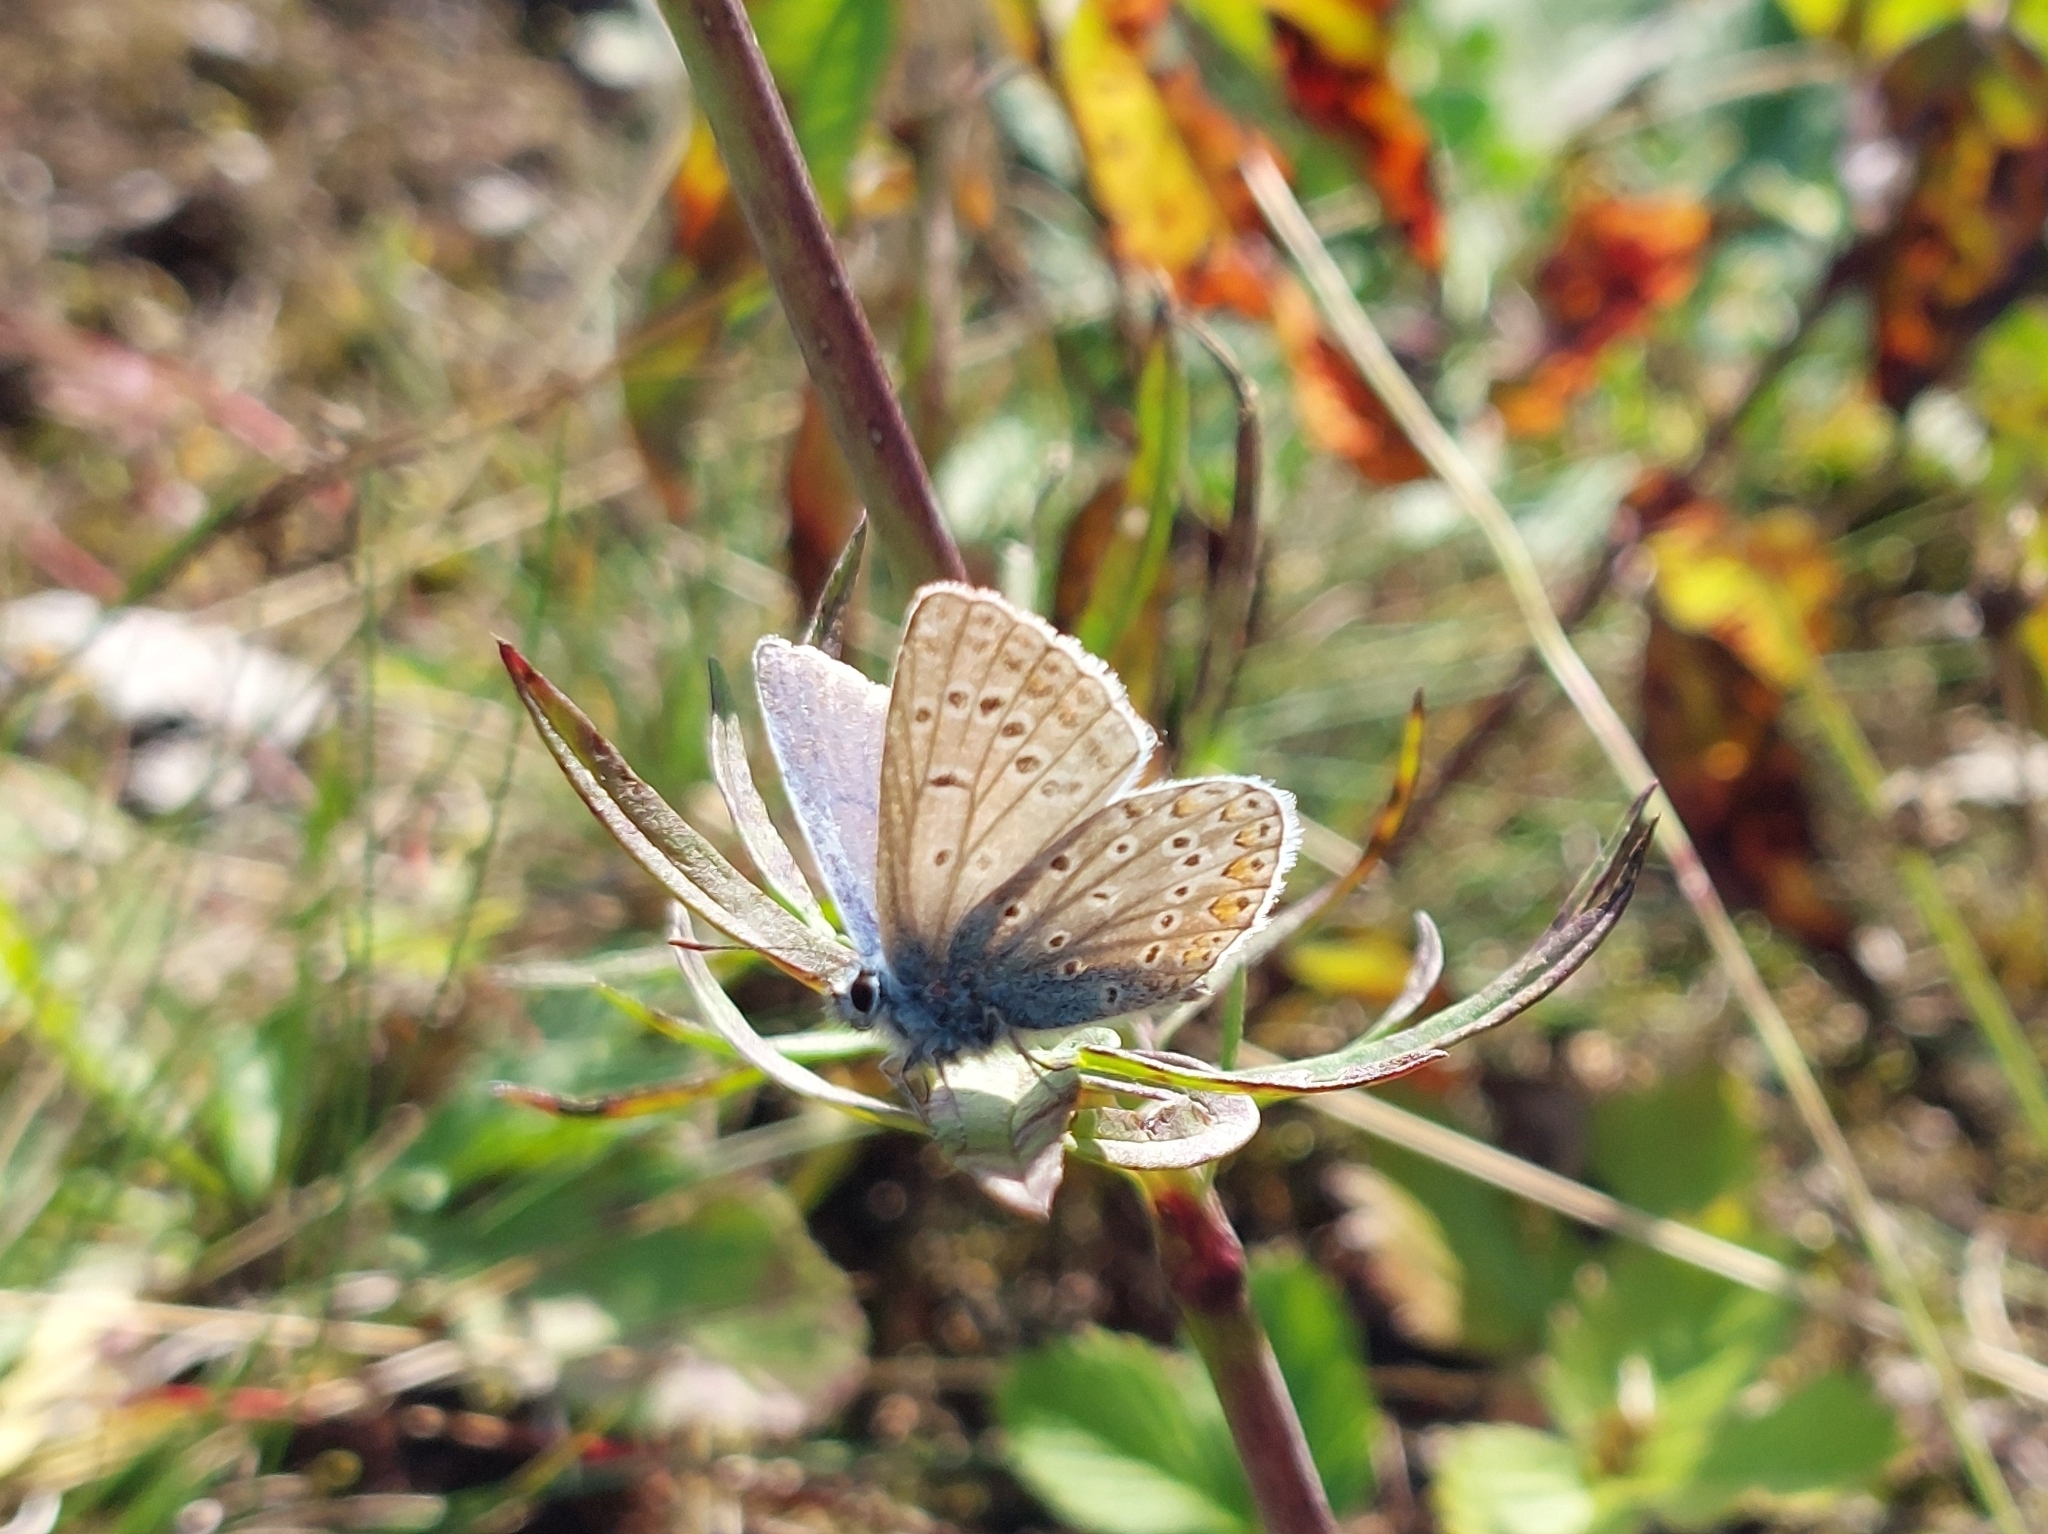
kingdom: Animalia
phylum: Arthropoda
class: Insecta
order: Lepidoptera
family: Lycaenidae
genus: Polyommatus
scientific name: Polyommatus icarus
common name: Common blue
